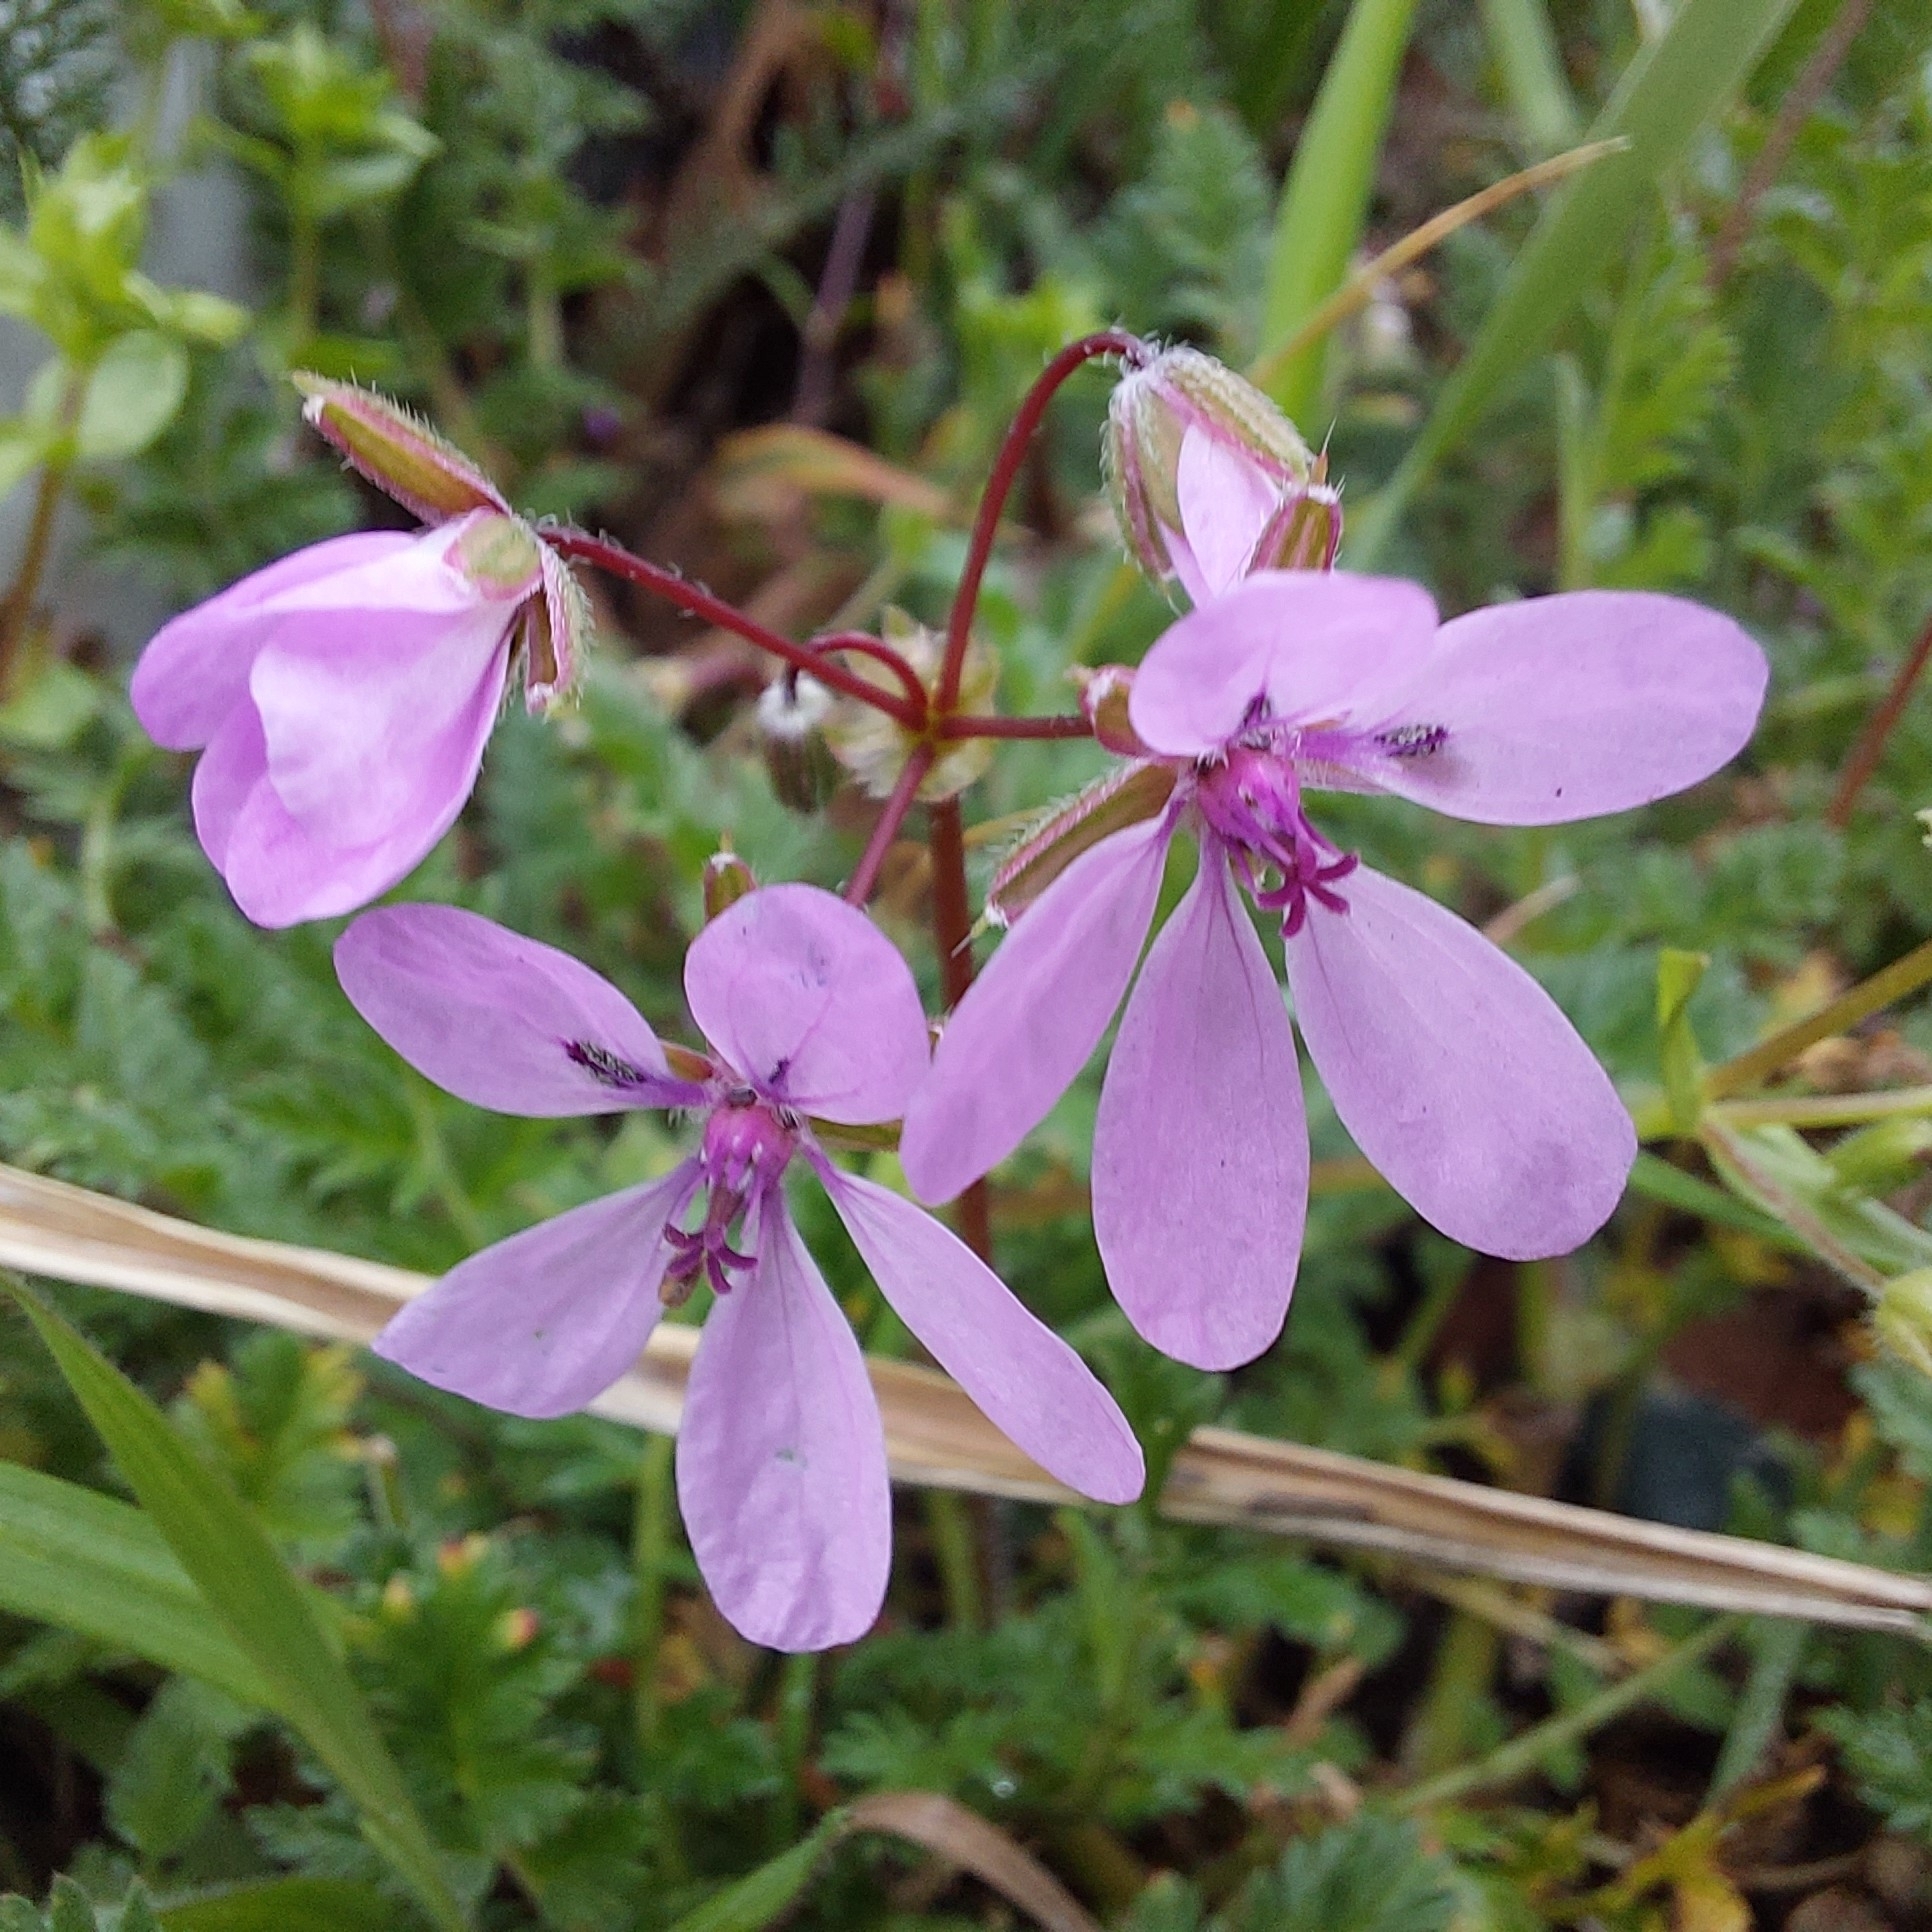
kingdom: Plantae
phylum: Tracheophyta
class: Magnoliopsida
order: Geraniales
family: Geraniaceae
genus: Erodium
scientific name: Erodium cicutarium
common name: Common stork's-bill
